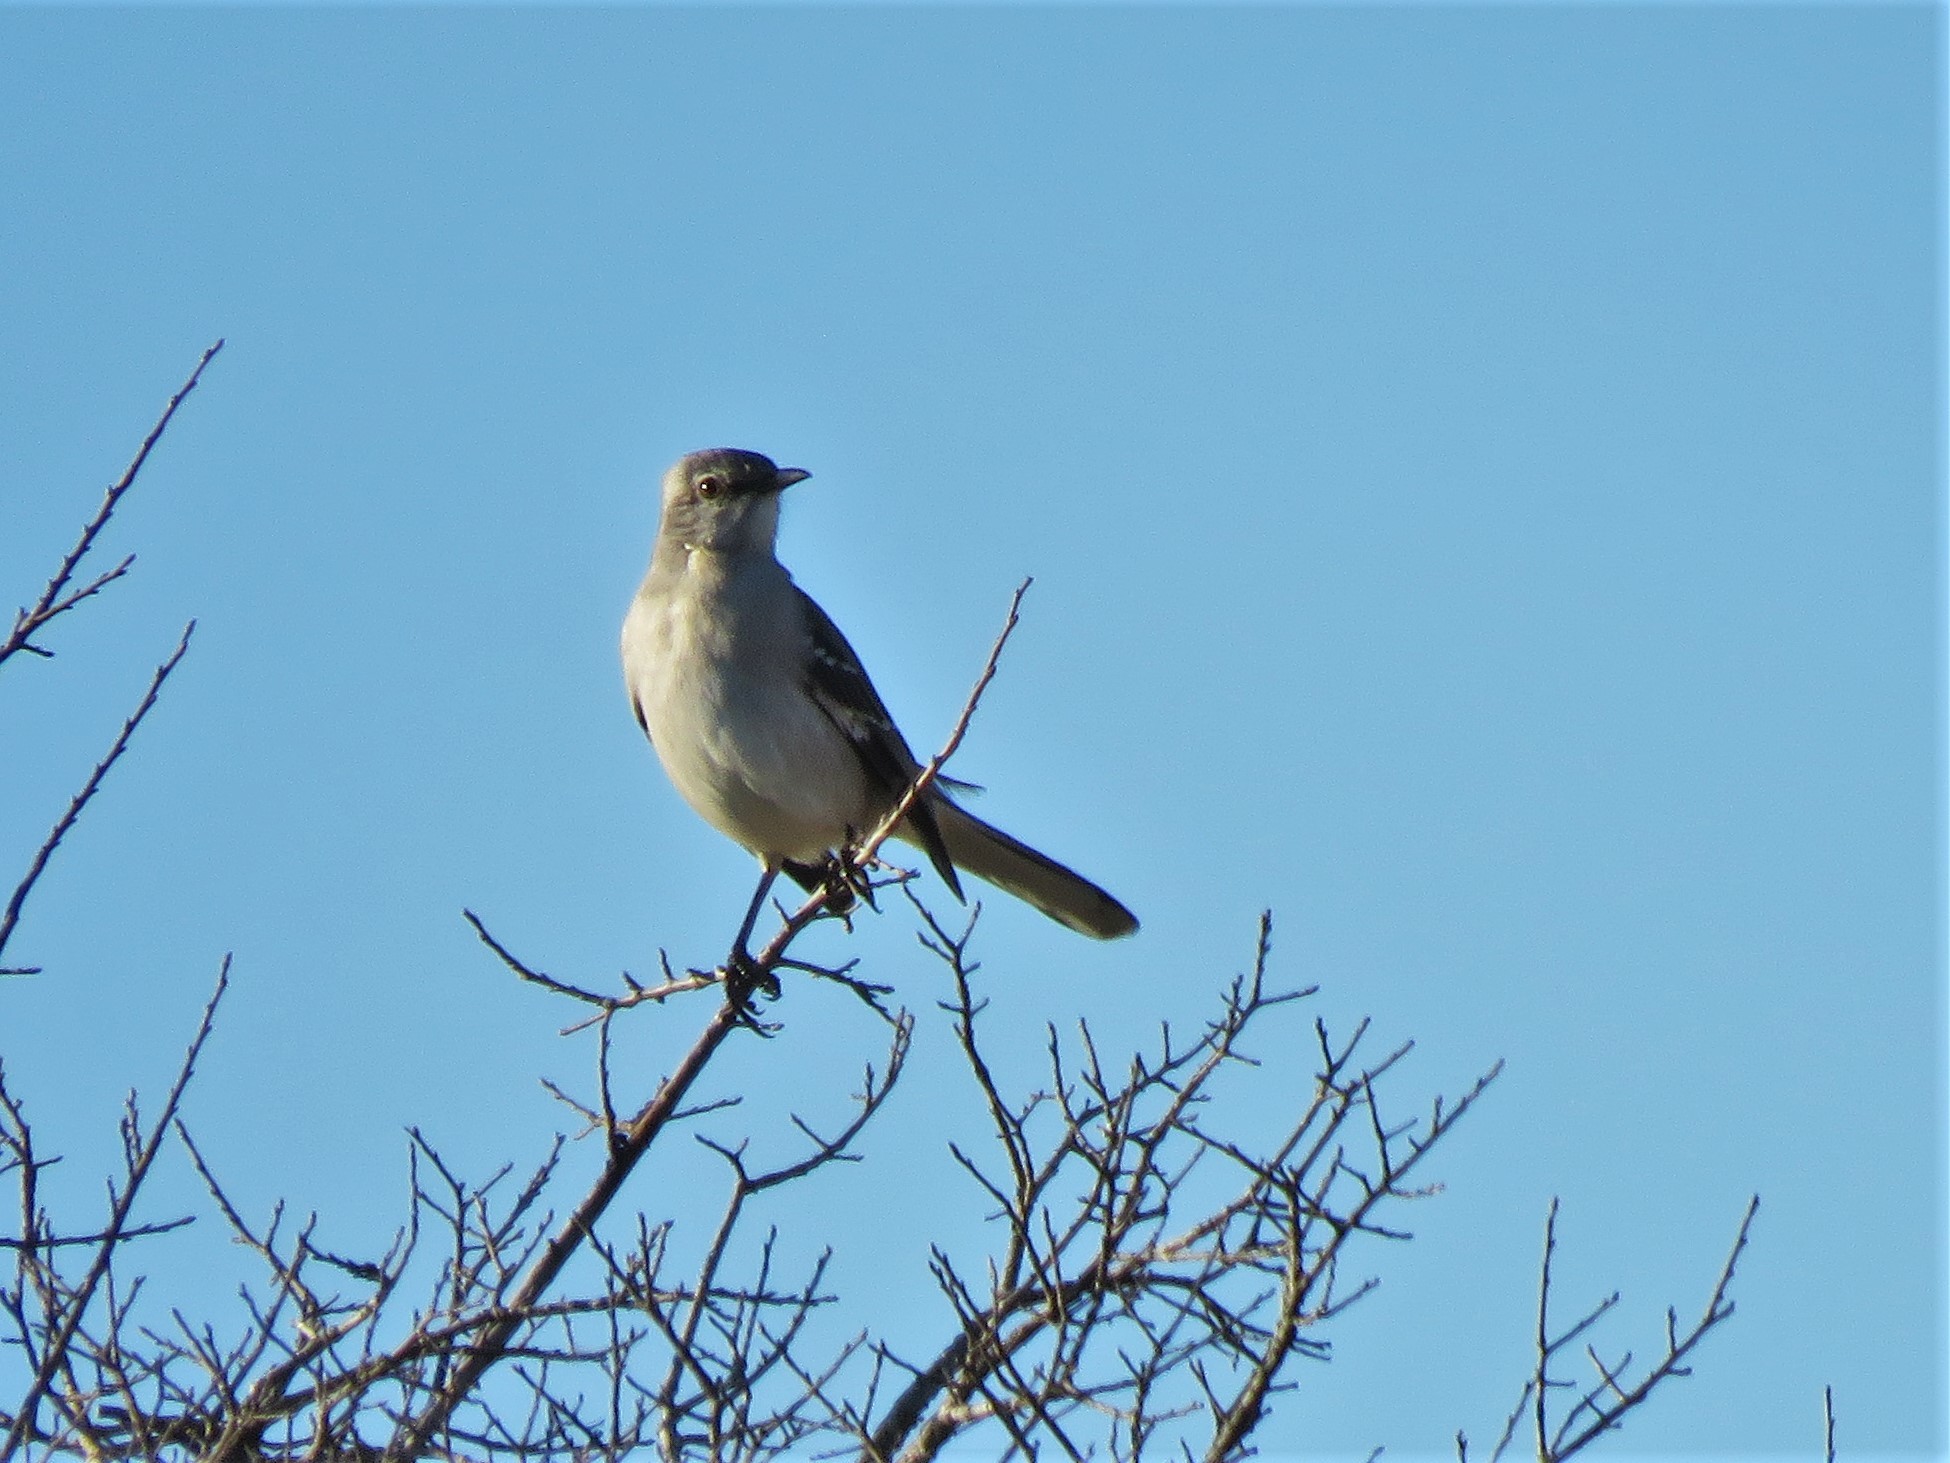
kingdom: Animalia
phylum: Chordata
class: Aves
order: Passeriformes
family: Mimidae
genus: Mimus
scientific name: Mimus polyglottos
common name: Northern mockingbird
